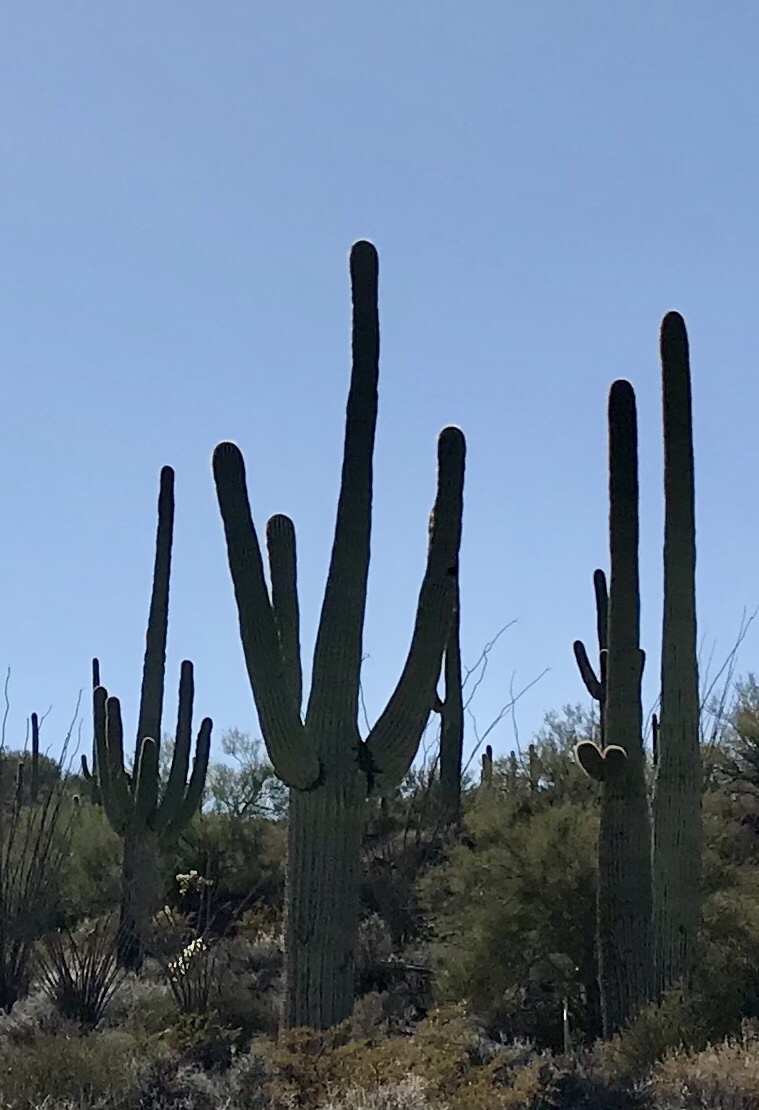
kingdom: Plantae
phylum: Tracheophyta
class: Magnoliopsida
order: Caryophyllales
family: Cactaceae
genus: Carnegiea
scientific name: Carnegiea gigantea
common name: Saguaro
